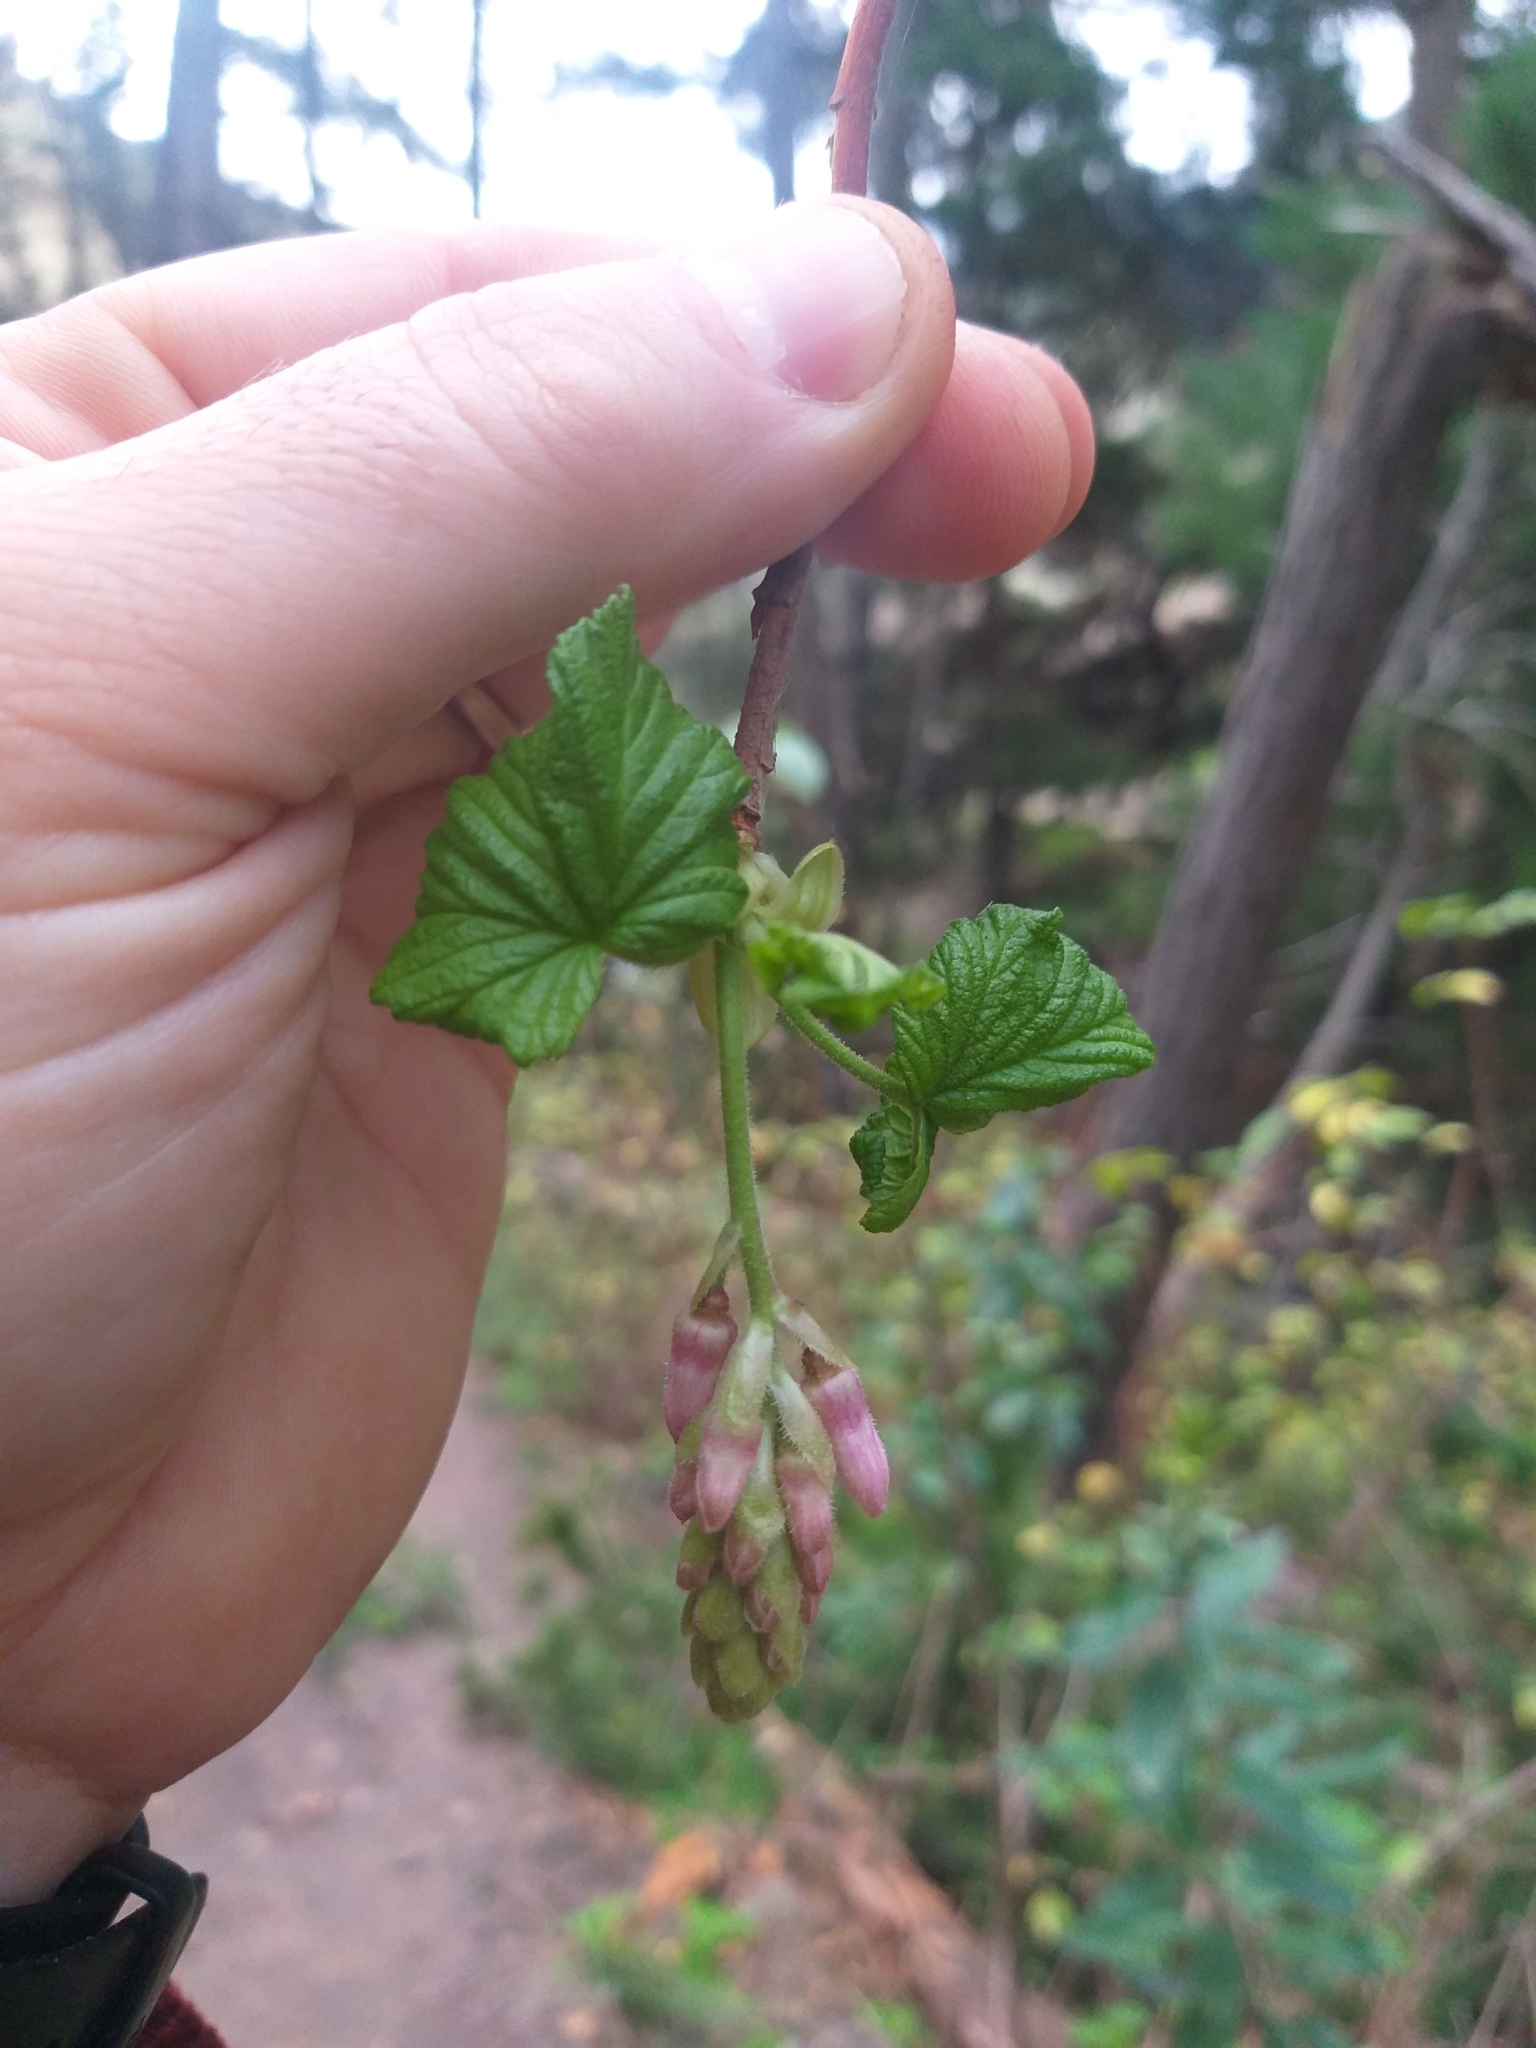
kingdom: Plantae
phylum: Tracheophyta
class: Magnoliopsida
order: Saxifragales
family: Grossulariaceae
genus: Ribes
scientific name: Ribes sanguineum
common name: Flowering currant
